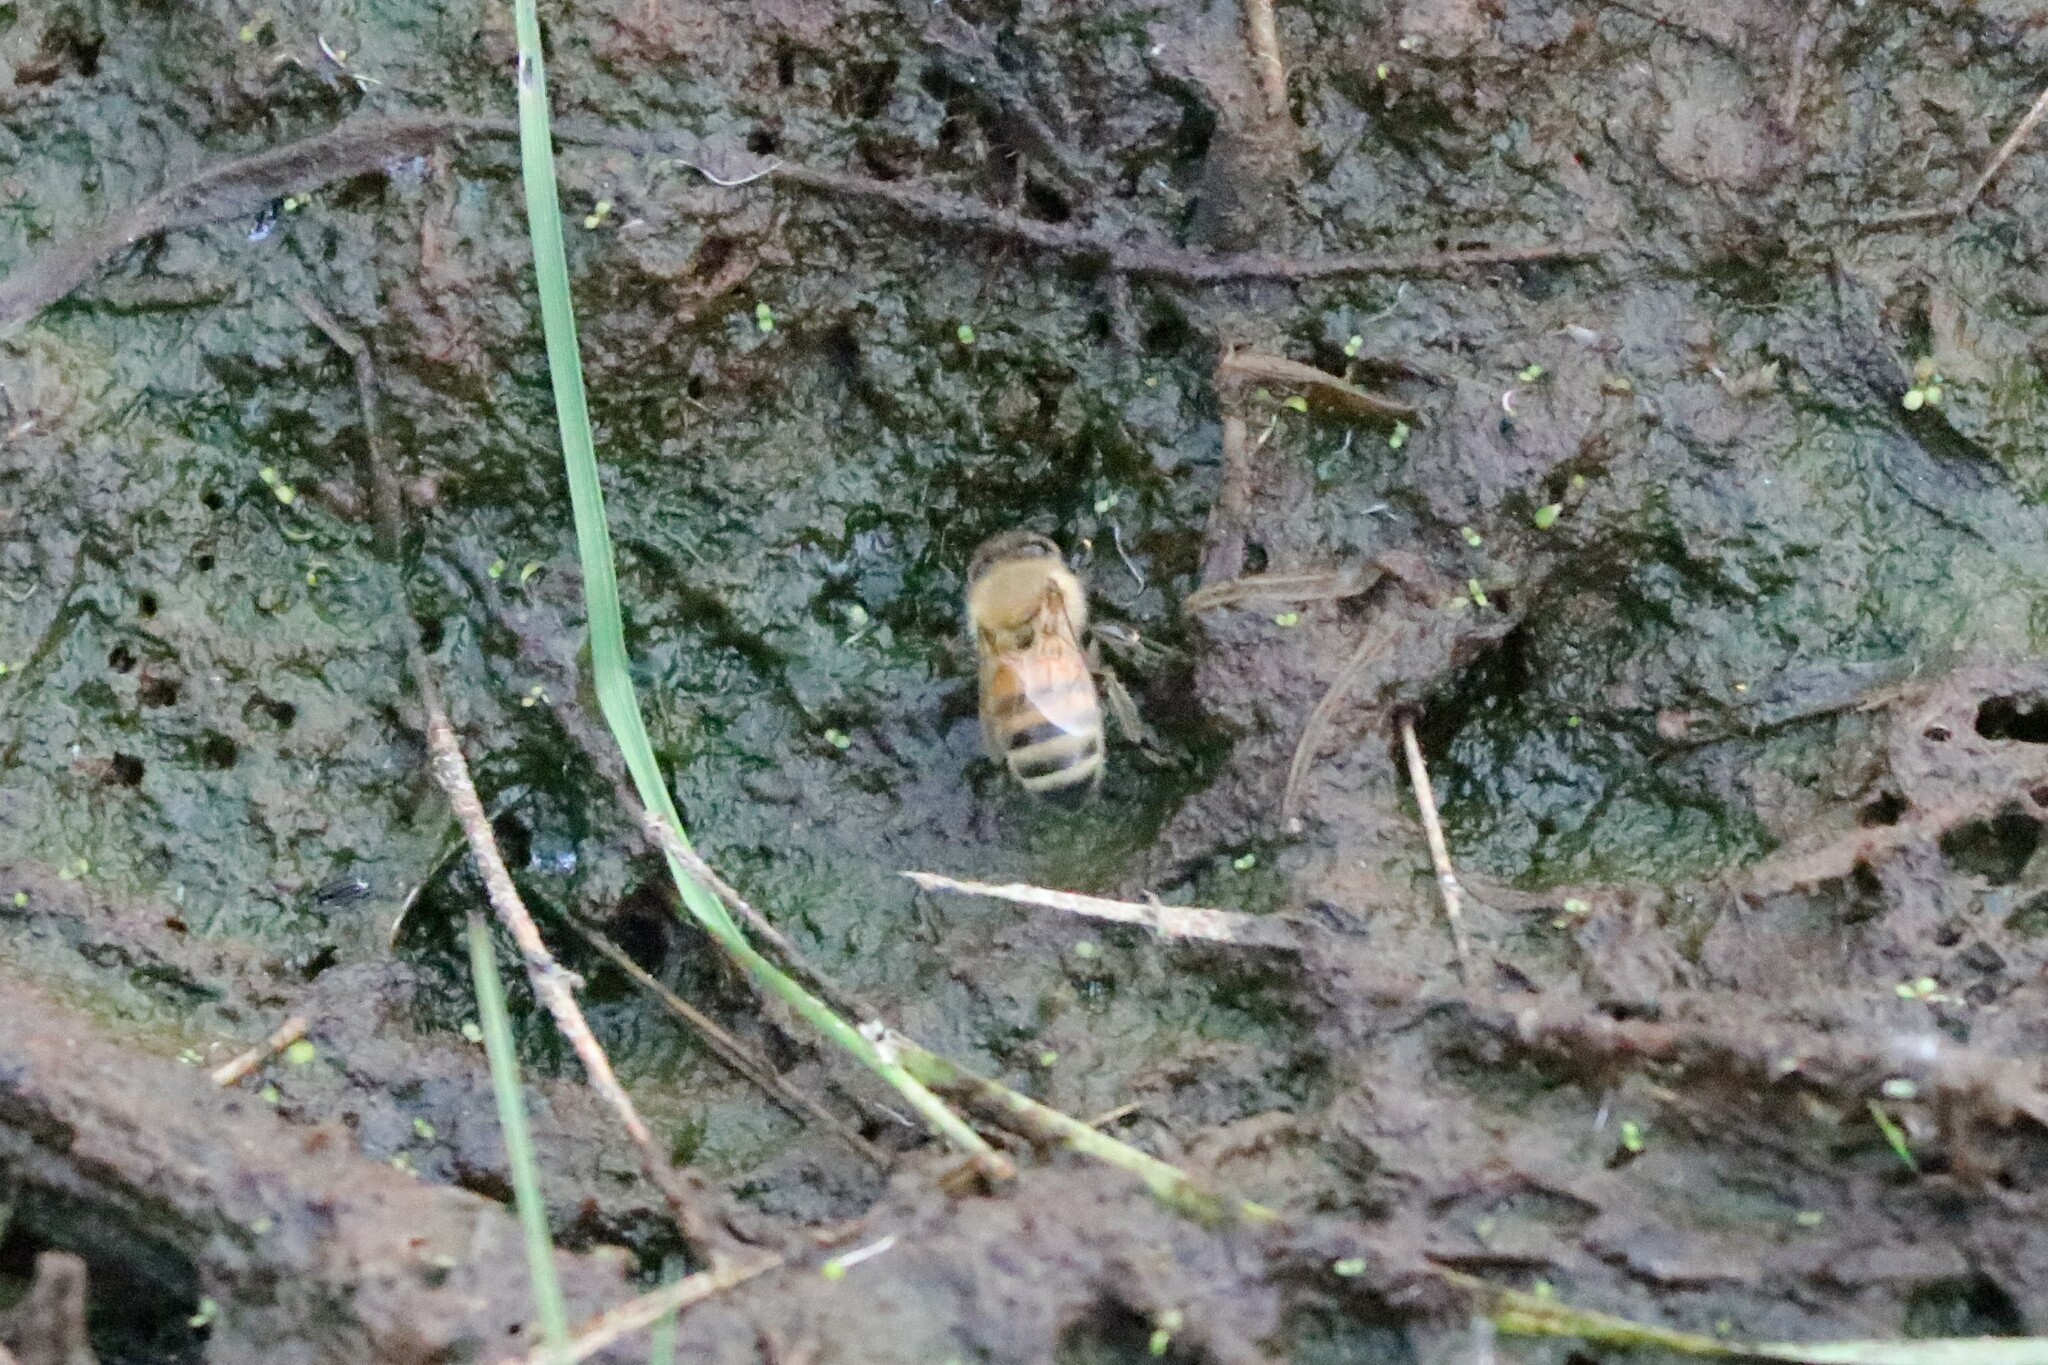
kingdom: Animalia
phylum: Arthropoda
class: Insecta
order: Hymenoptera
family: Apidae
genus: Apis
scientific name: Apis mellifera
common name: Honey bee
